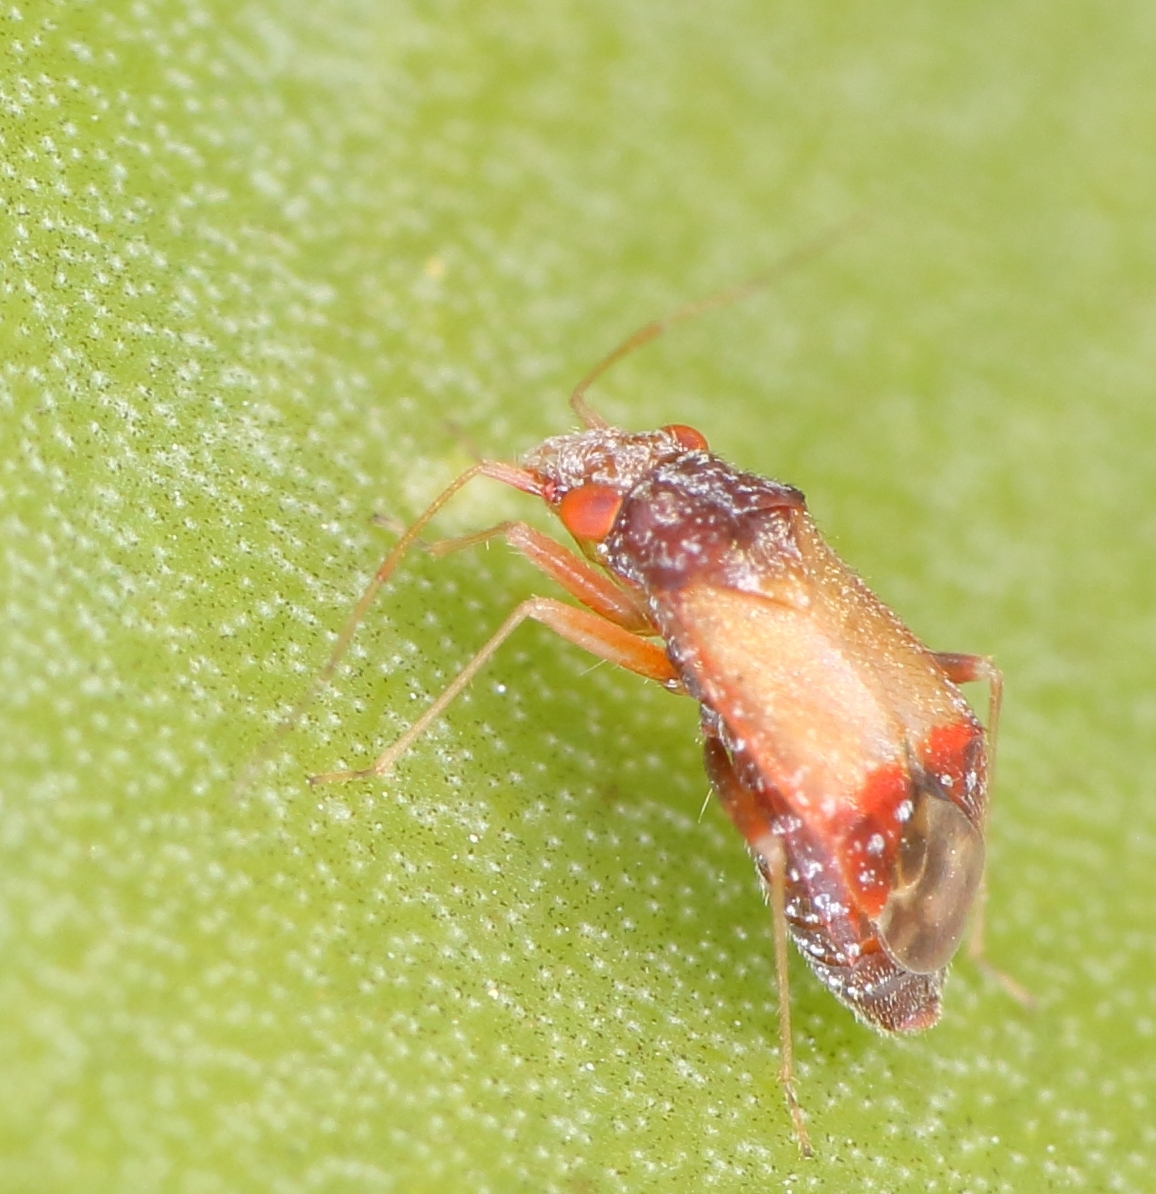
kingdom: Animalia
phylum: Arthropoda
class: Insecta
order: Hemiptera
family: Miridae
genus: Aloea
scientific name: Aloea australis
